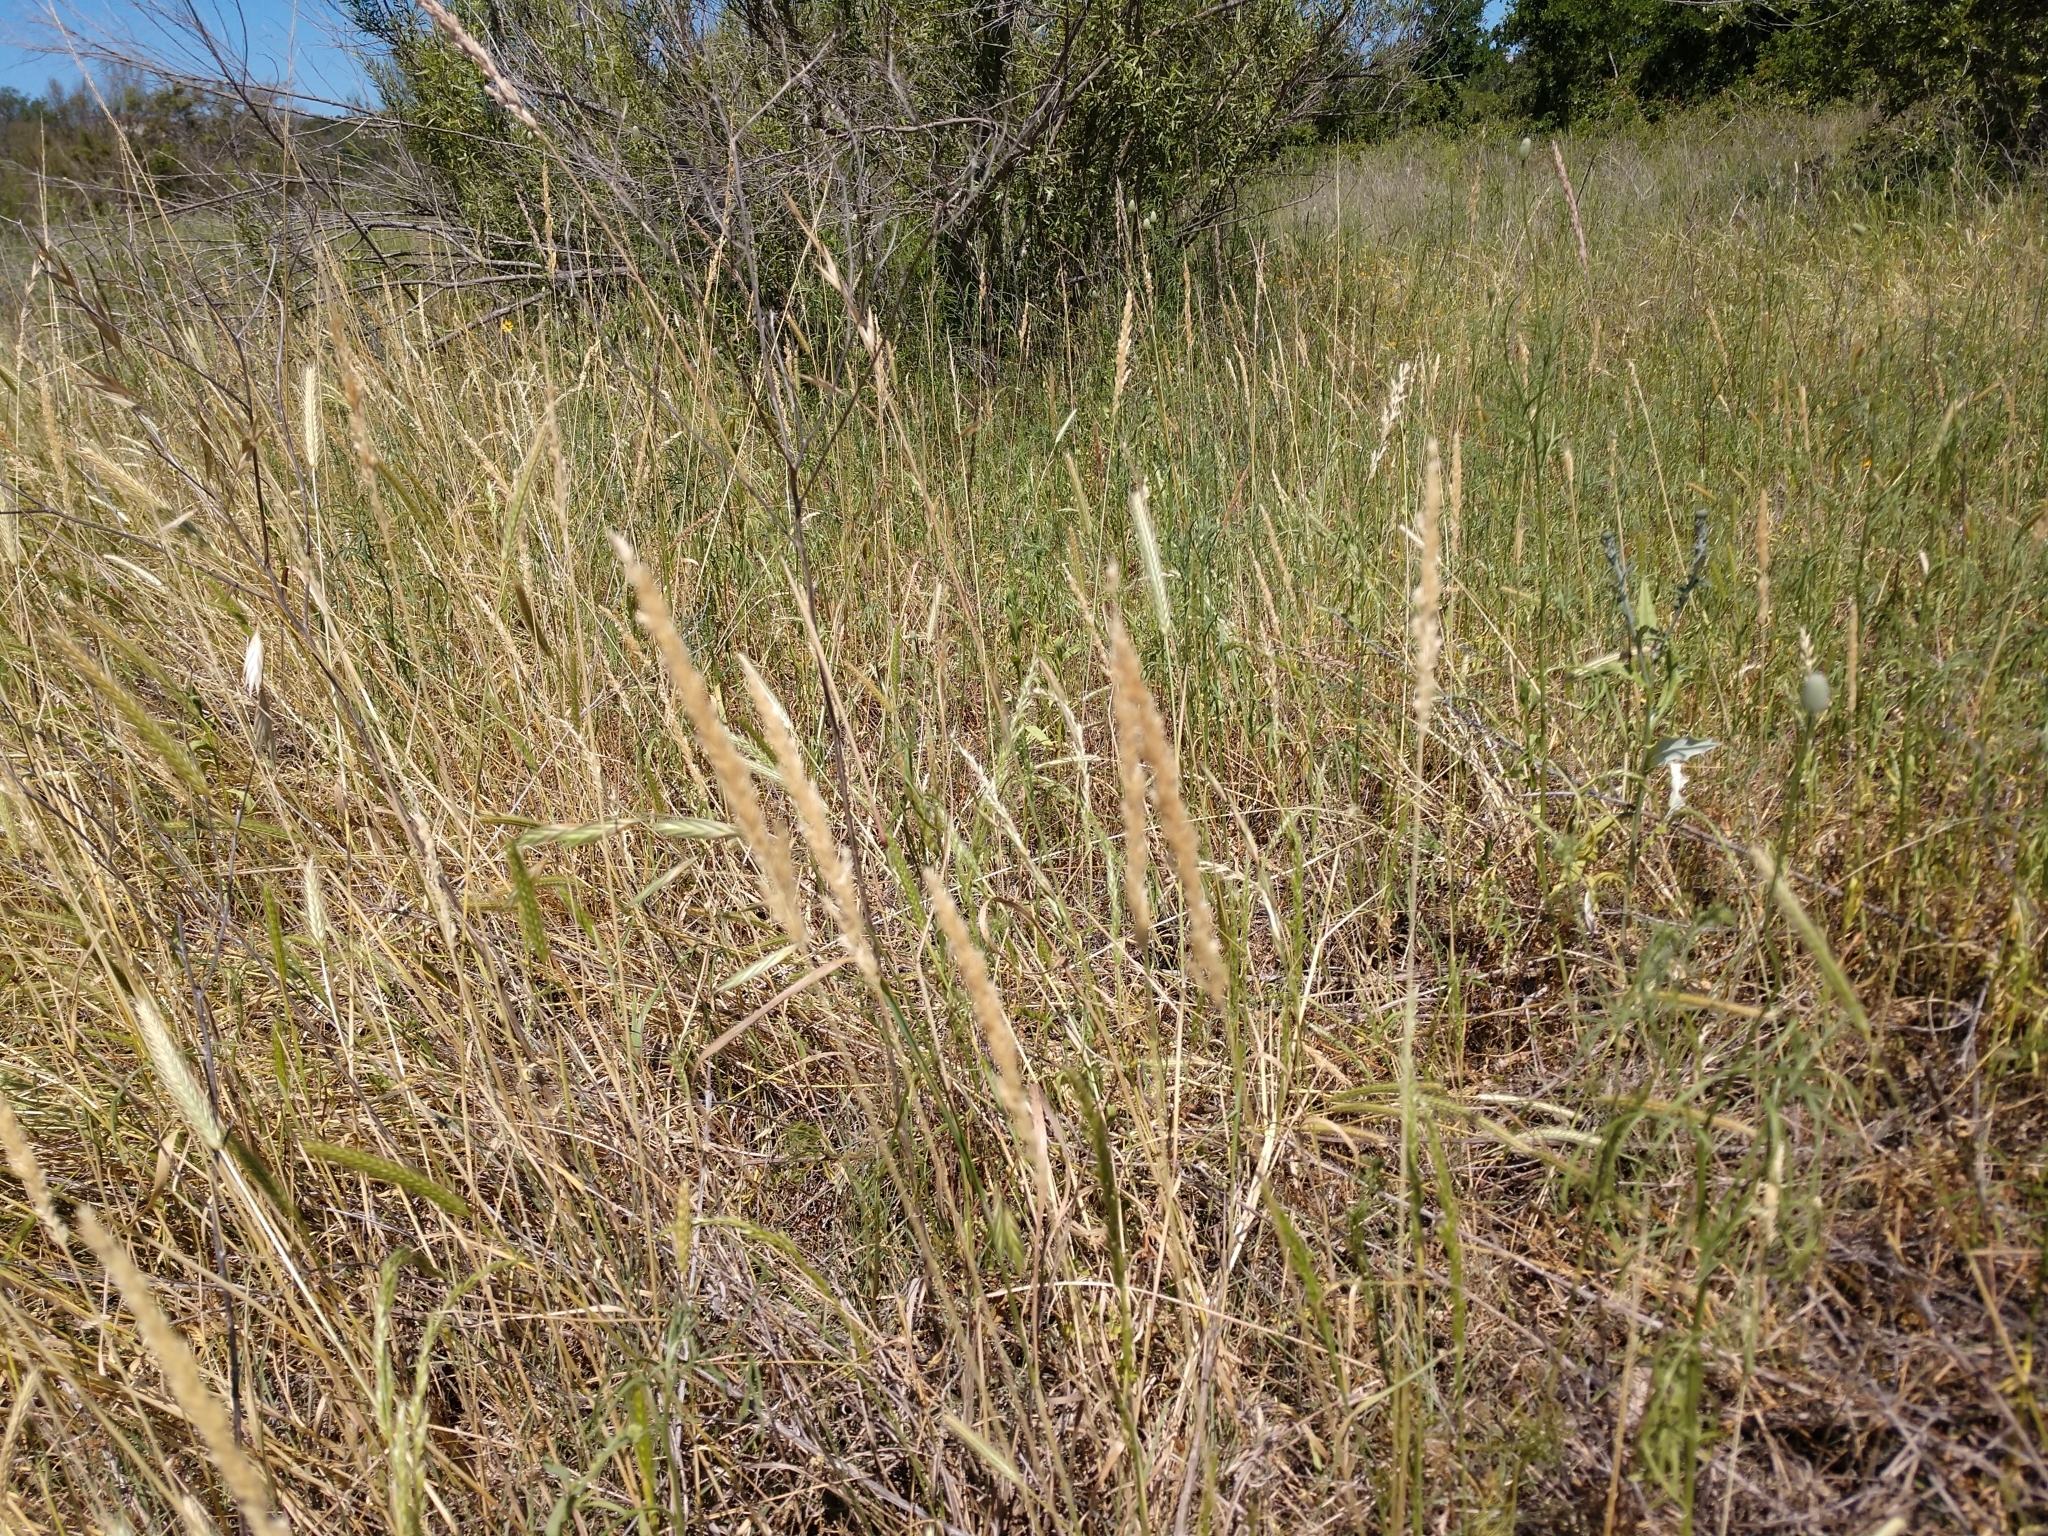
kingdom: Plantae
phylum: Tracheophyta
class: Liliopsida
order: Poales
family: Poaceae
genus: Sphenopholis
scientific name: Sphenopholis obtusata
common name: Prairie grass
